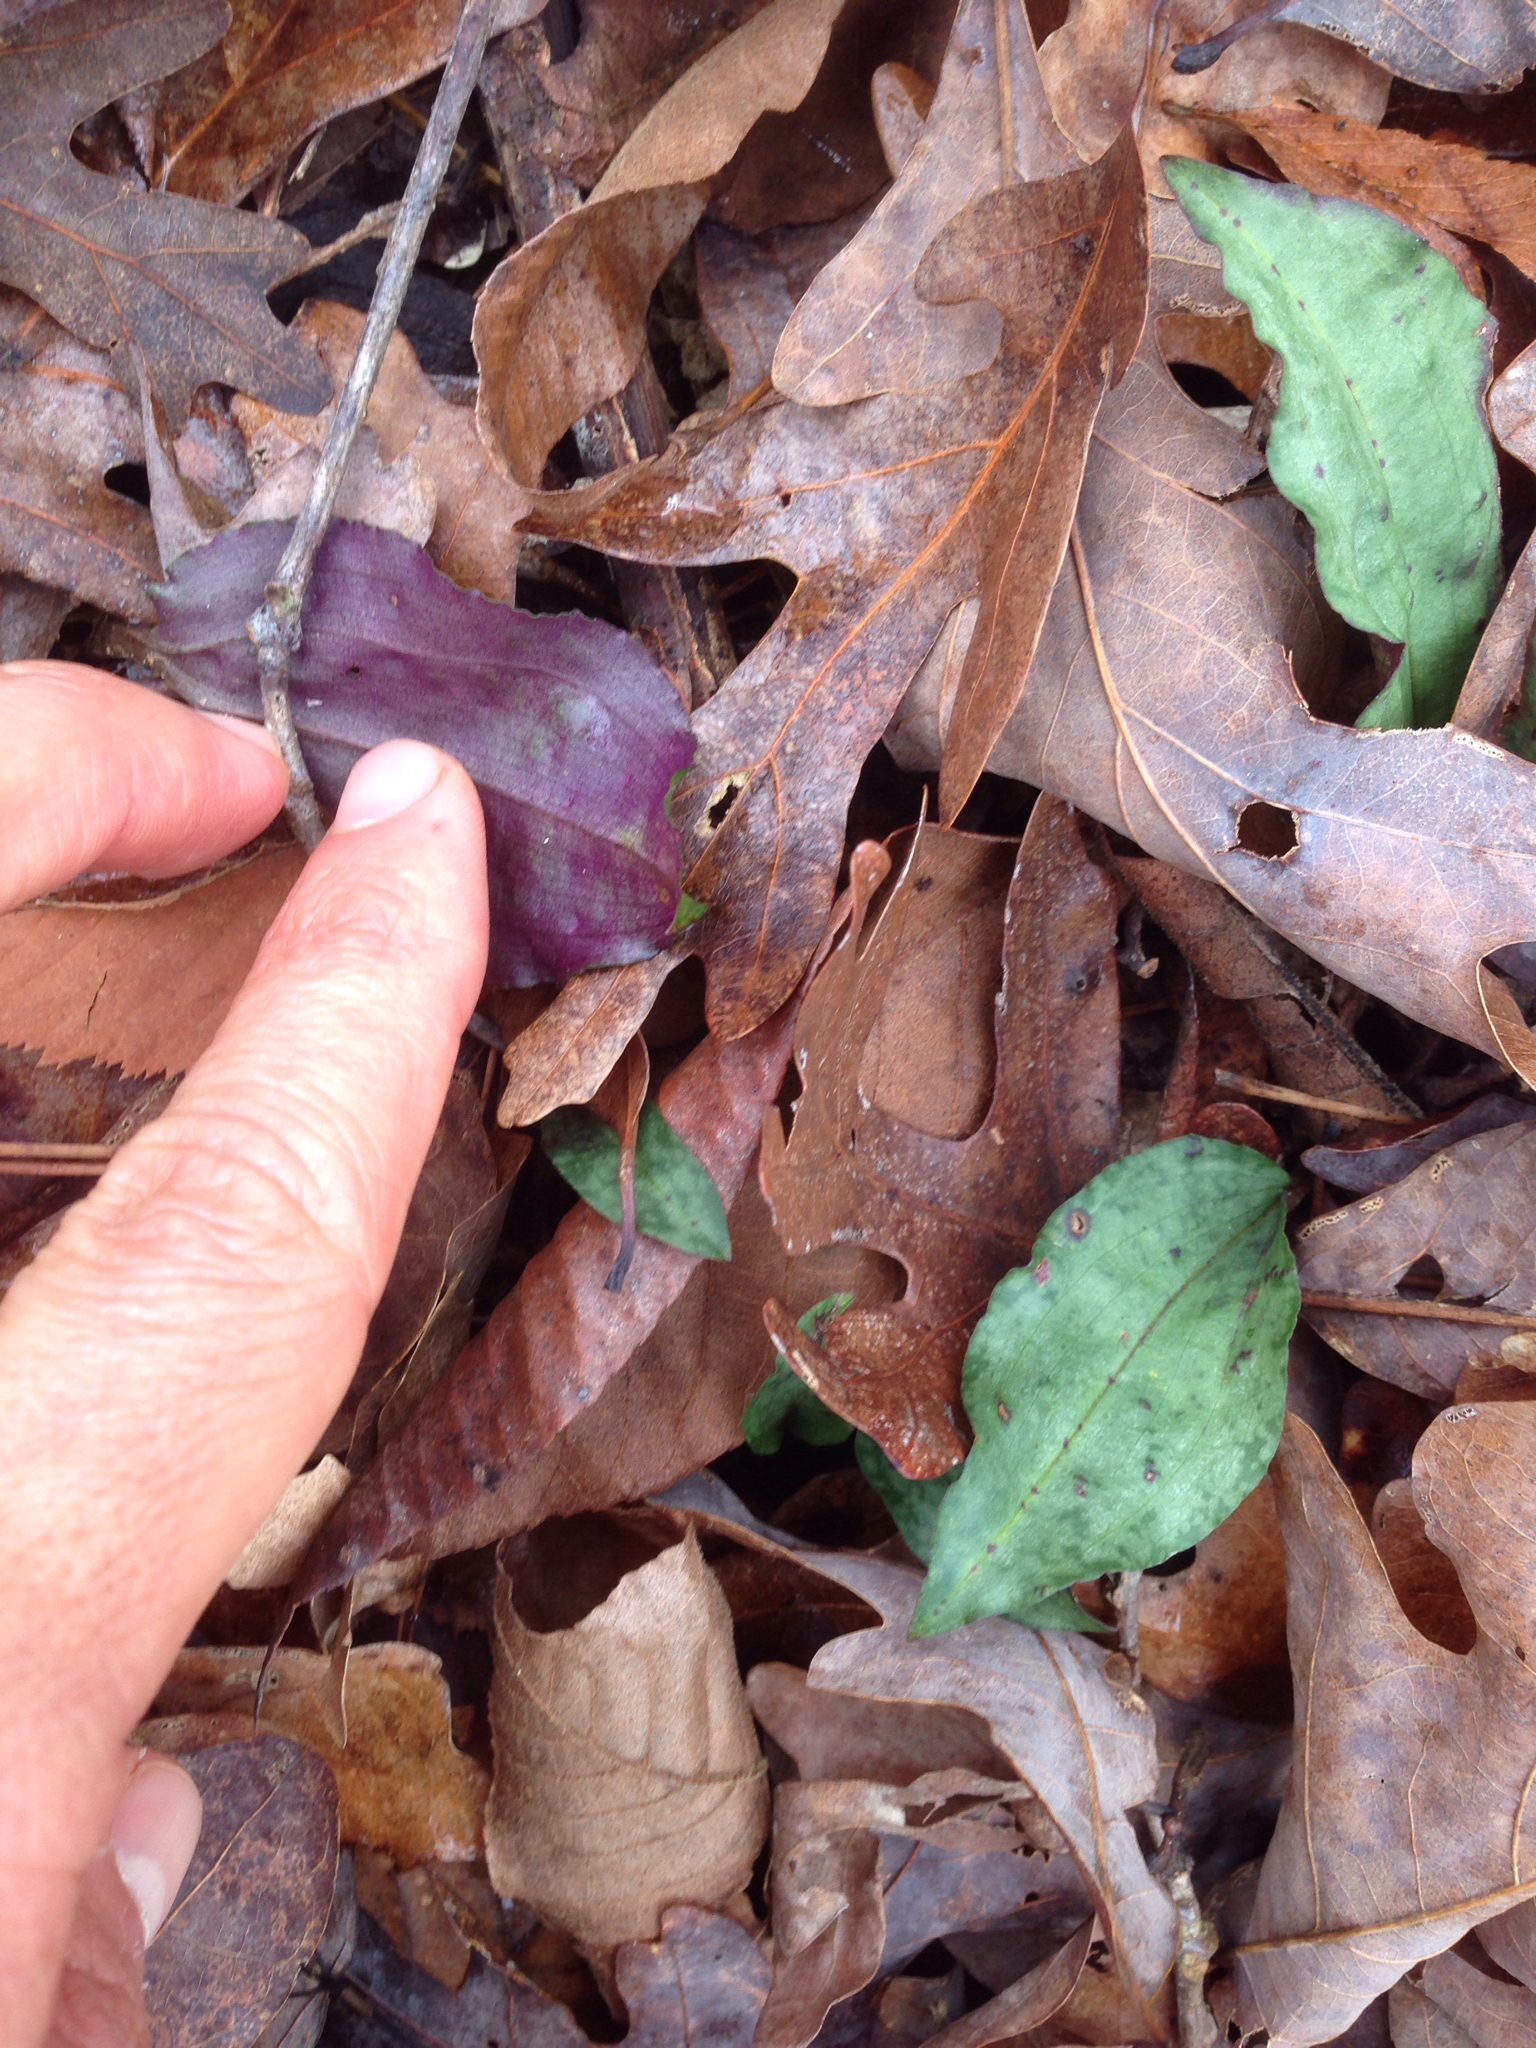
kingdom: Plantae
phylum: Tracheophyta
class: Liliopsida
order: Asparagales
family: Orchidaceae
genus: Tipularia
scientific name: Tipularia discolor
